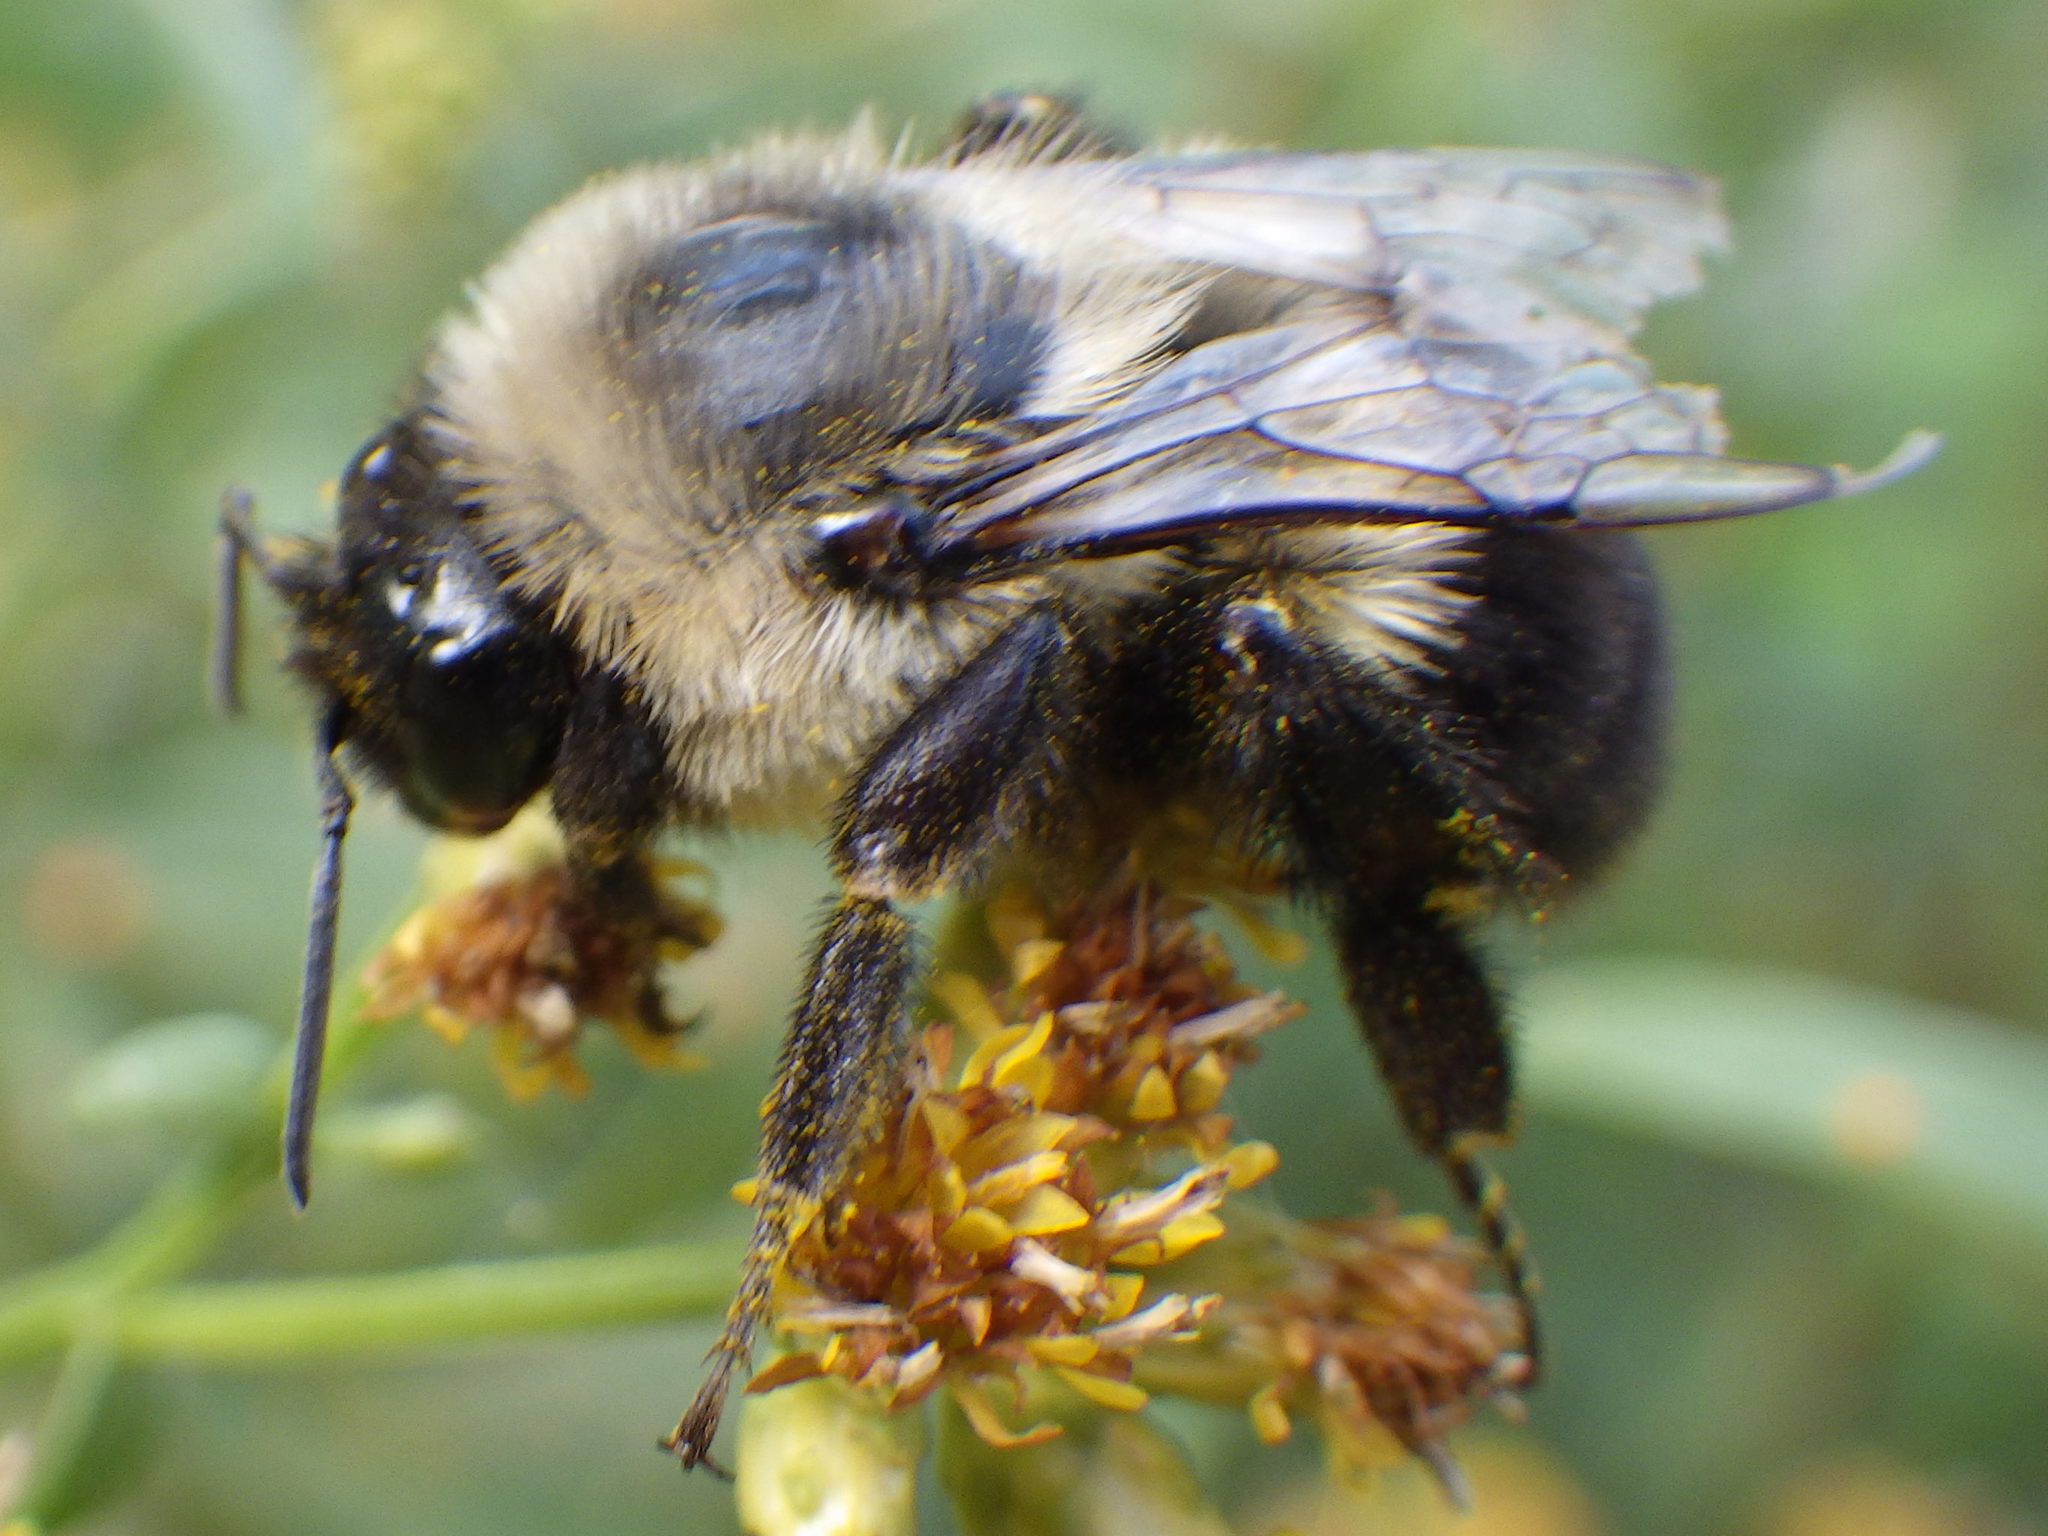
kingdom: Animalia
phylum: Arthropoda
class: Insecta
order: Hymenoptera
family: Apidae
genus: Bombus
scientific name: Bombus impatiens
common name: Common eastern bumble bee
